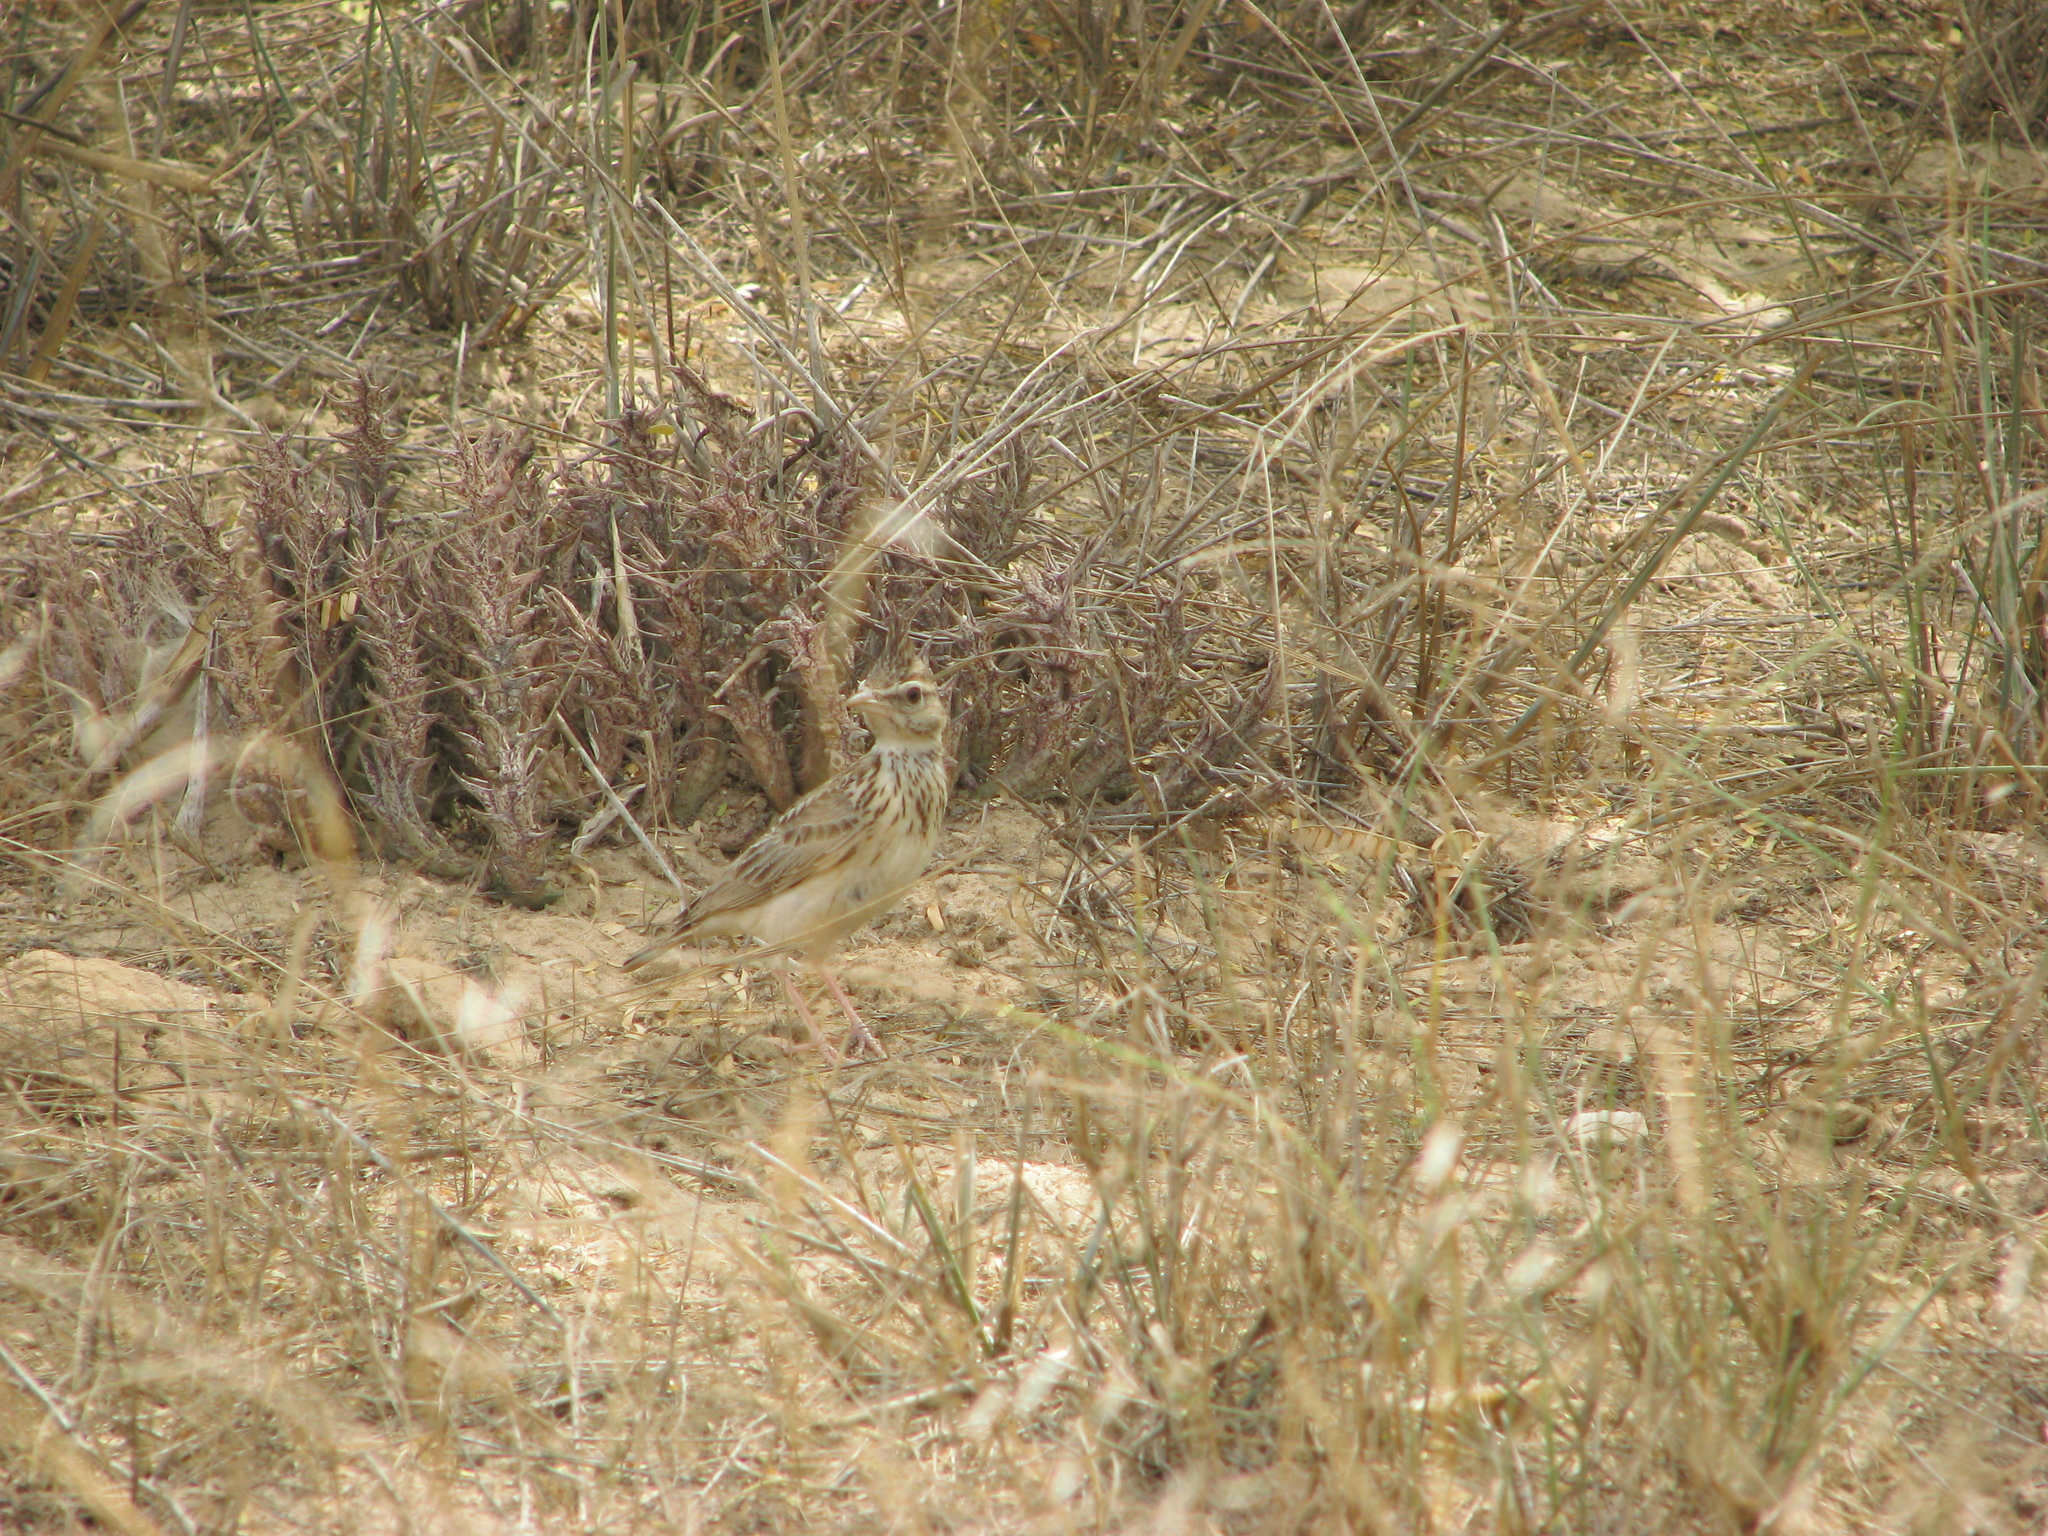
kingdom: Animalia
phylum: Chordata
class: Aves
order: Passeriformes
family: Alaudidae
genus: Galerida
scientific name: Galerida cristata
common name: Crested lark
